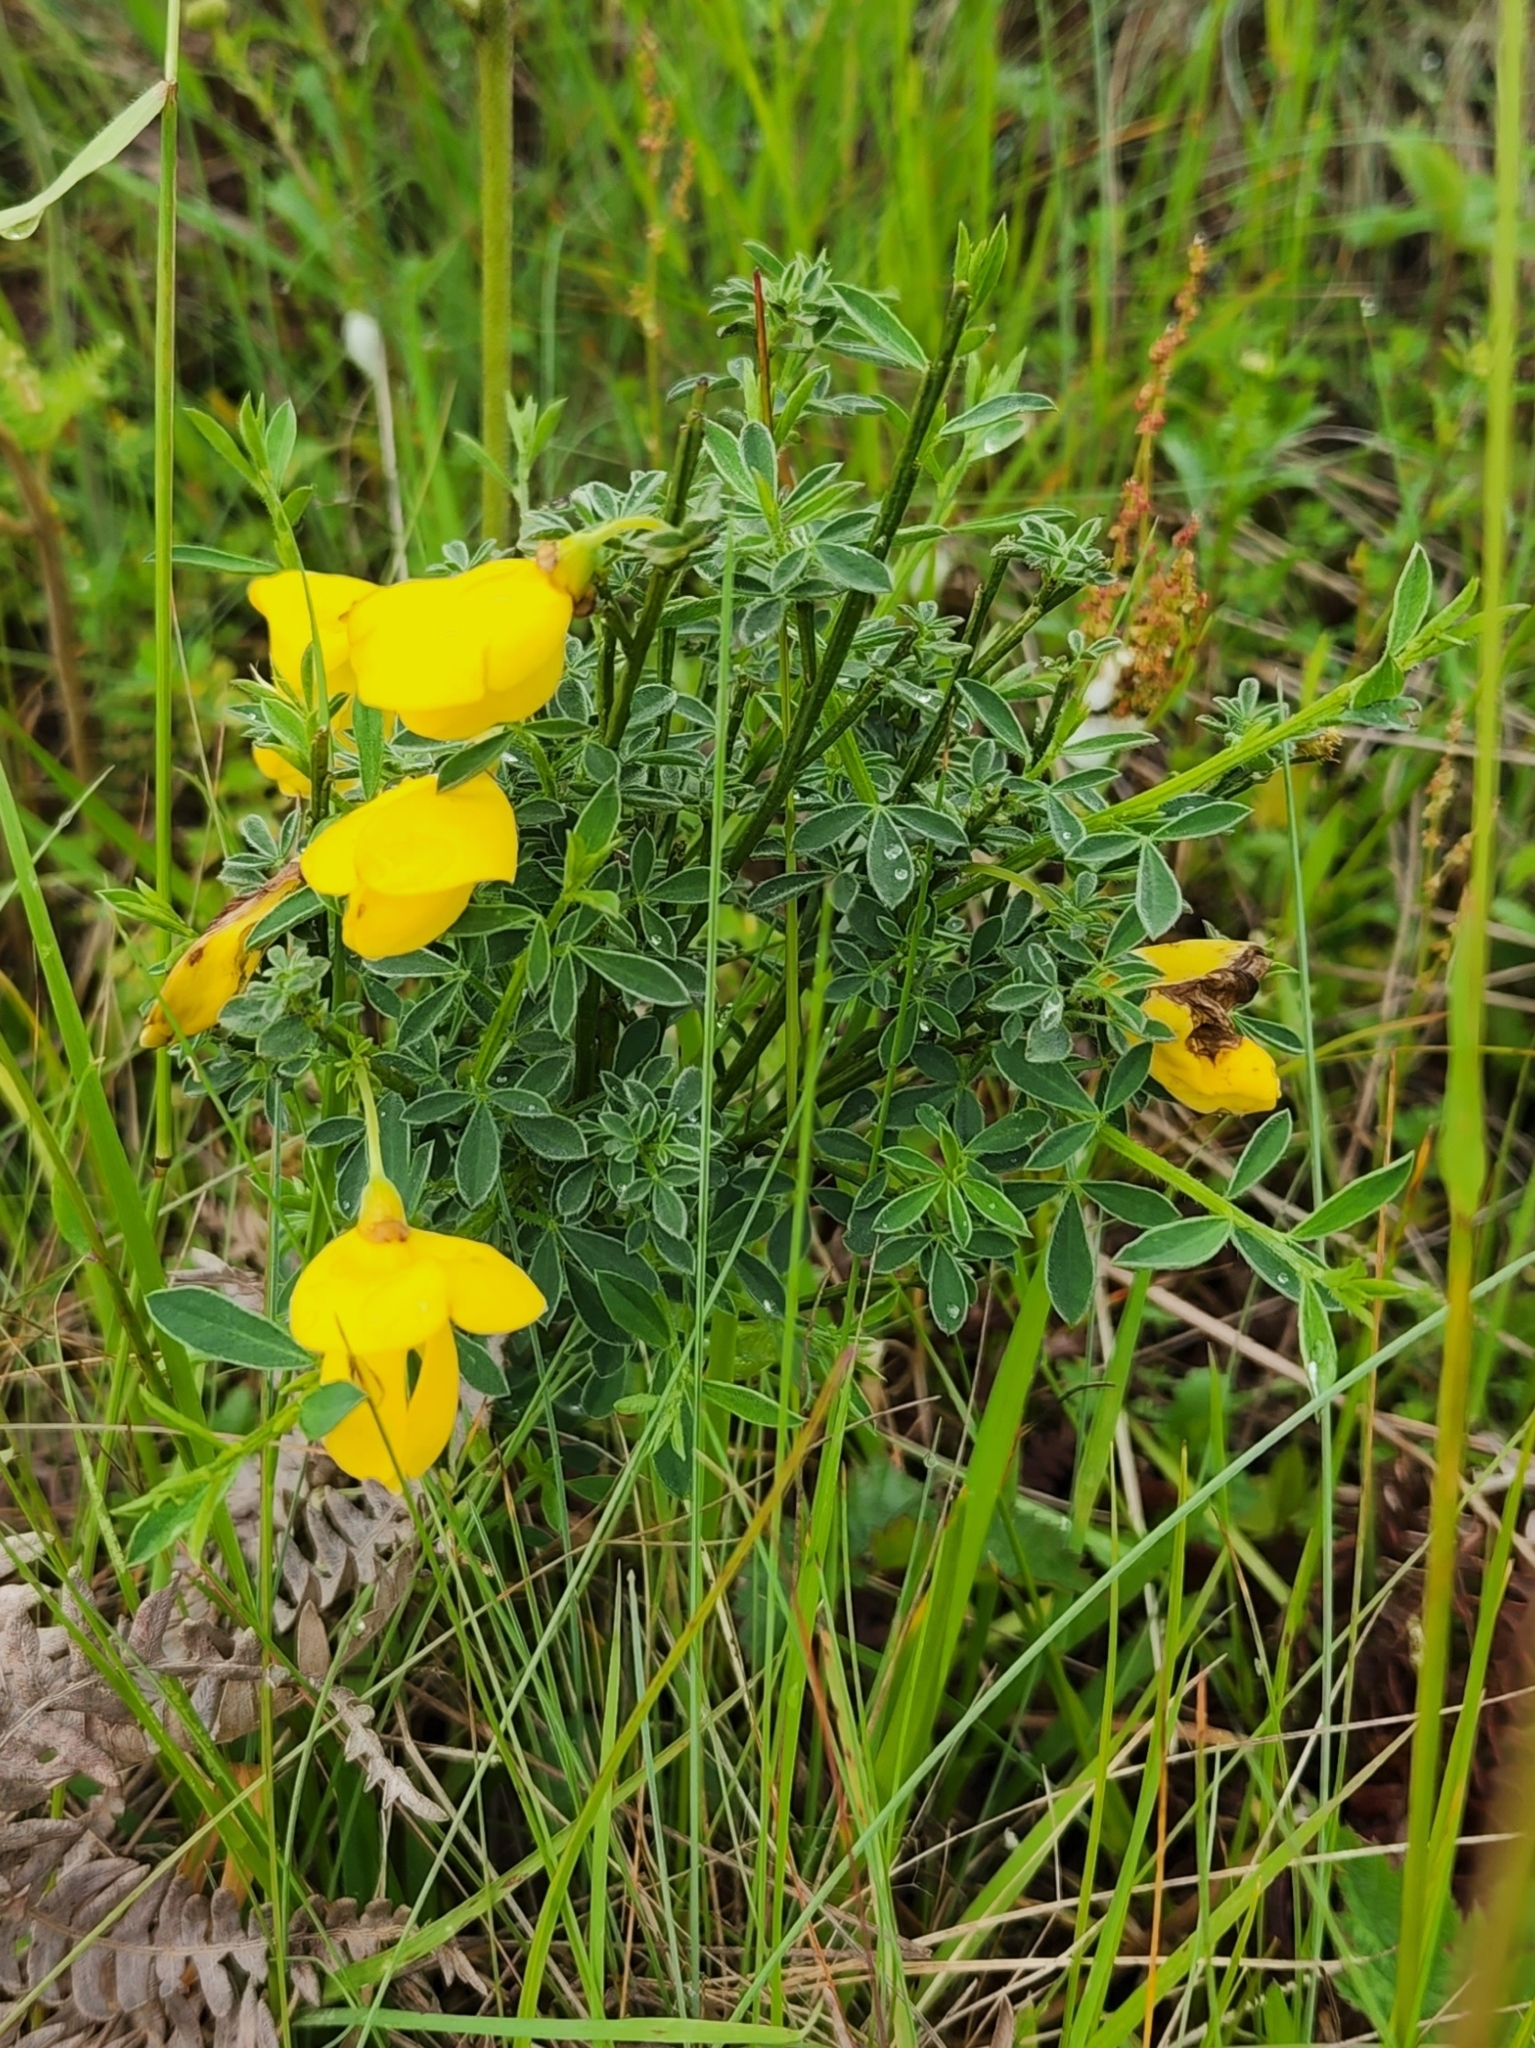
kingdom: Plantae
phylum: Tracheophyta
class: Magnoliopsida
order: Fabales
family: Fabaceae
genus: Cytisus
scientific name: Cytisus scoparius
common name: Scotch broom
